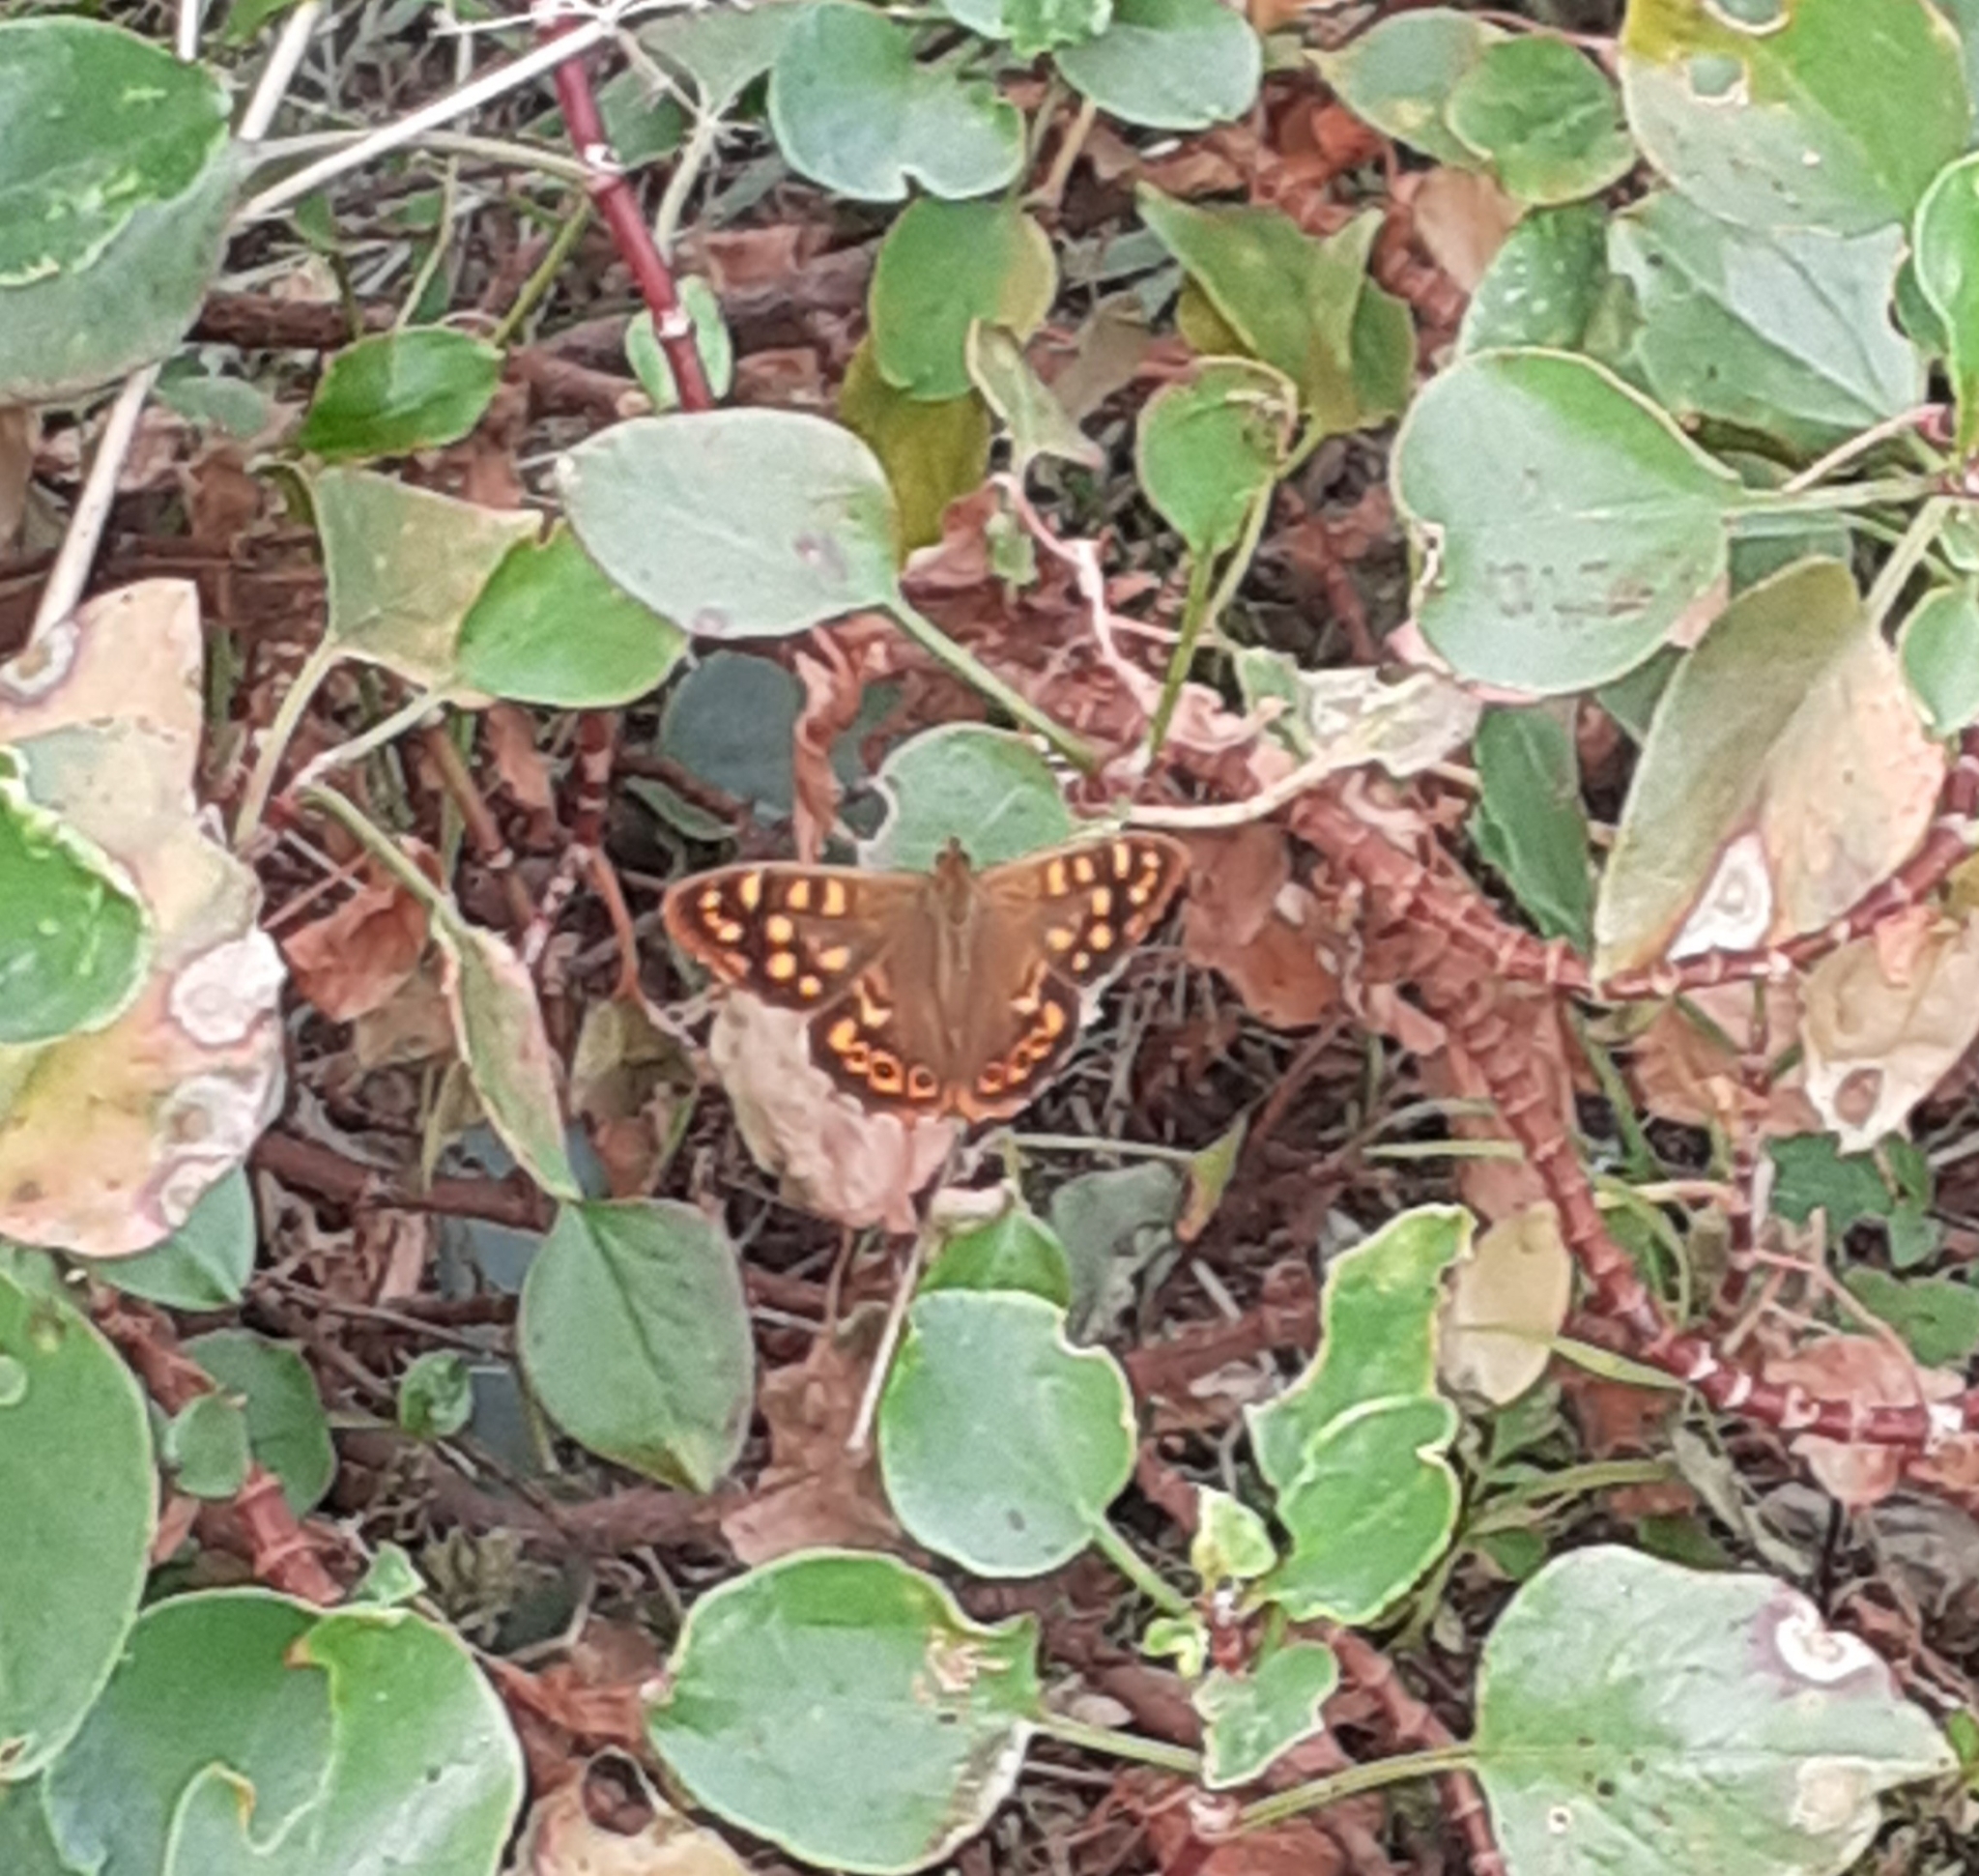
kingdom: Animalia
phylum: Arthropoda
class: Insecta
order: Lepidoptera
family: Nymphalidae
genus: Pararge
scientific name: Pararge aegeria
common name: Speckled wood
